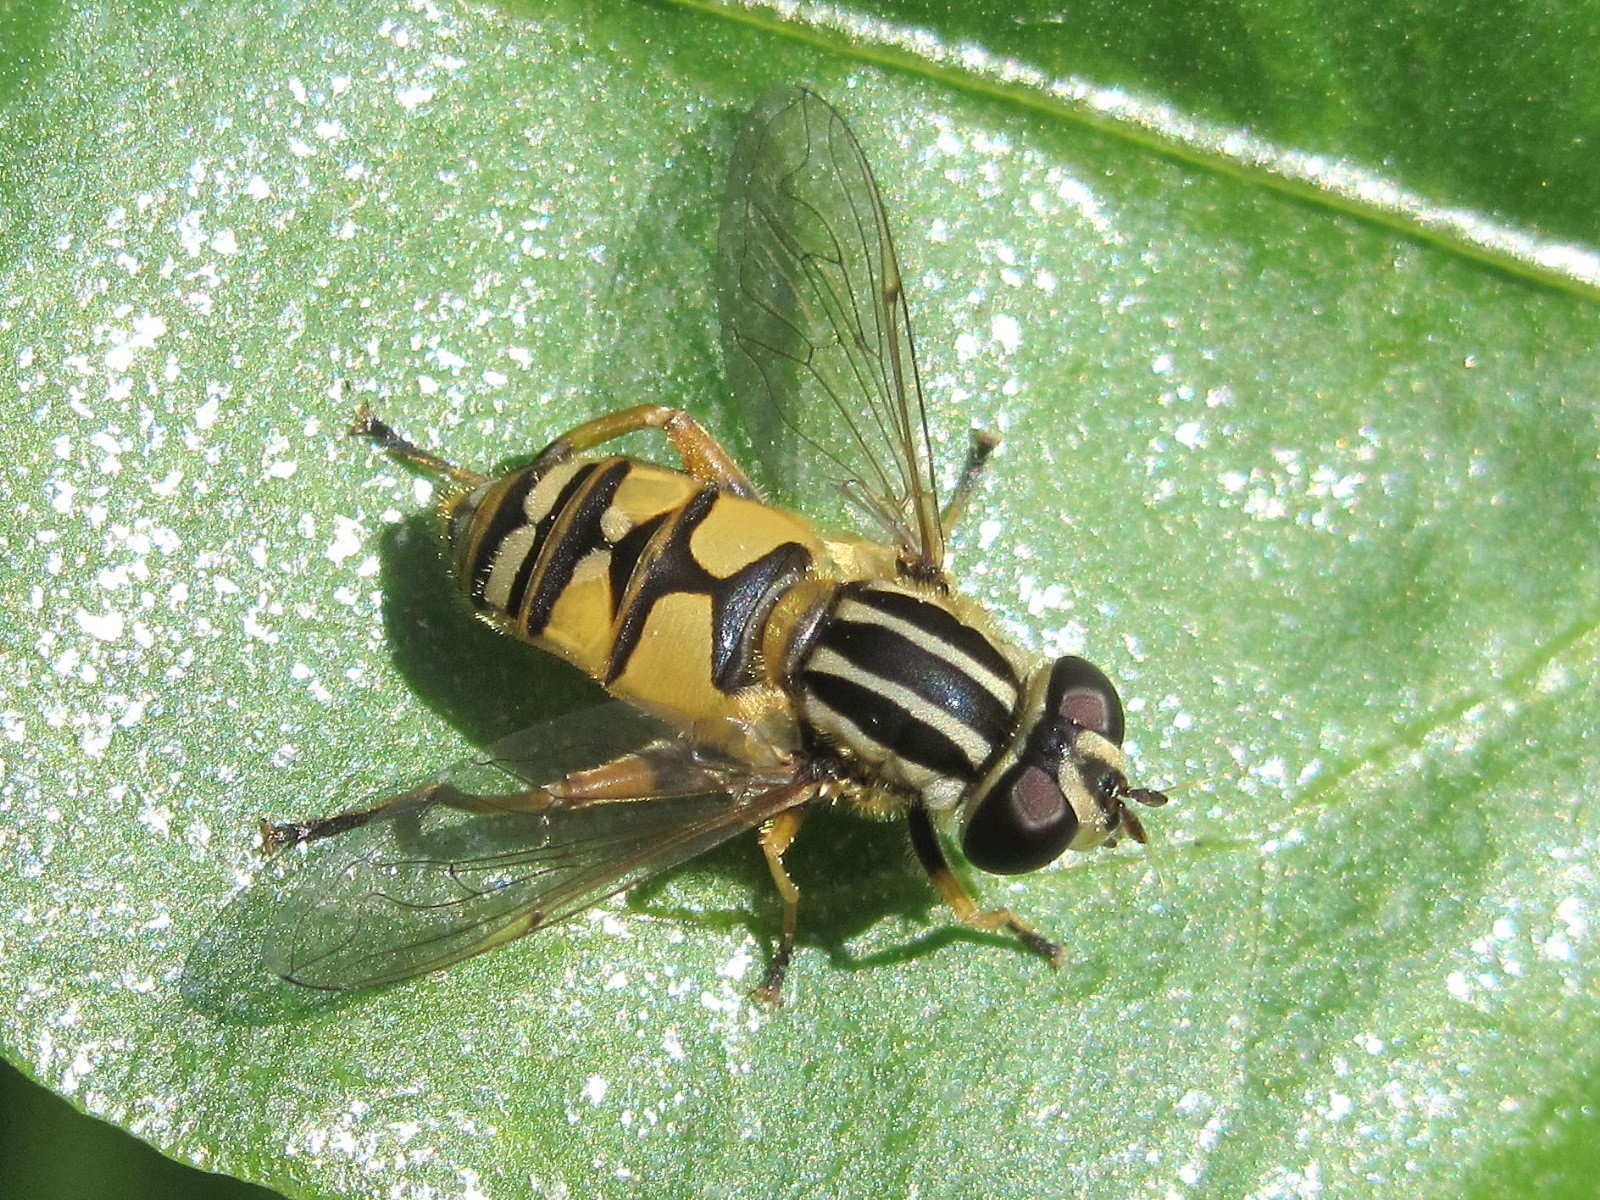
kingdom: Animalia
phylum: Arthropoda
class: Insecta
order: Diptera
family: Syrphidae
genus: Helophilus
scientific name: Helophilus pendulus
